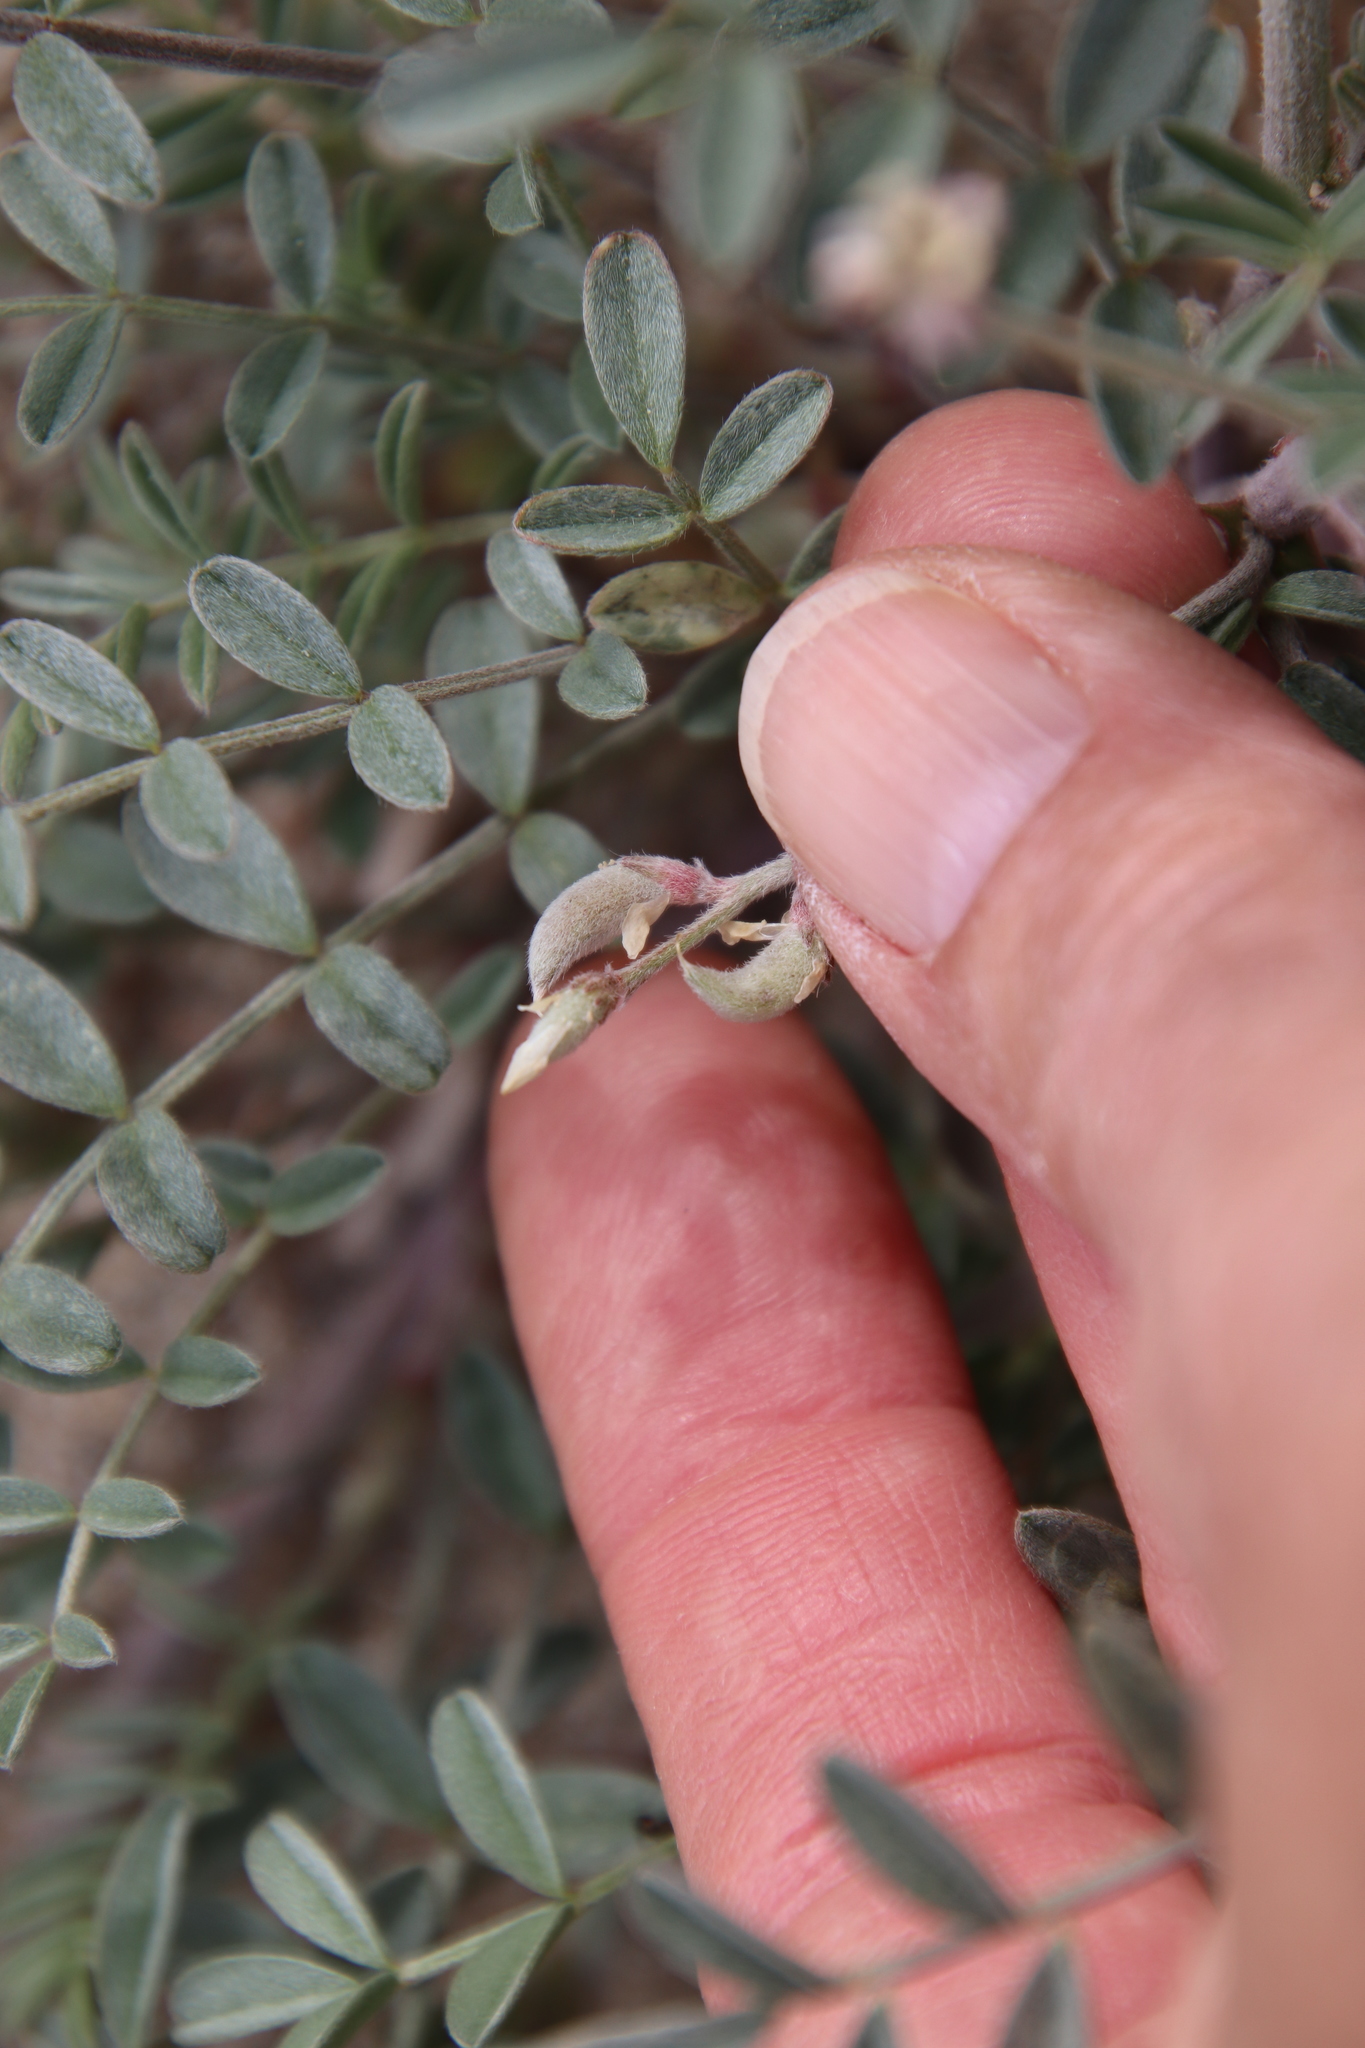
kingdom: Plantae
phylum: Tracheophyta
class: Magnoliopsida
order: Fabales
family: Fabaceae
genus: Astragalus
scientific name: Astragalus aridus
